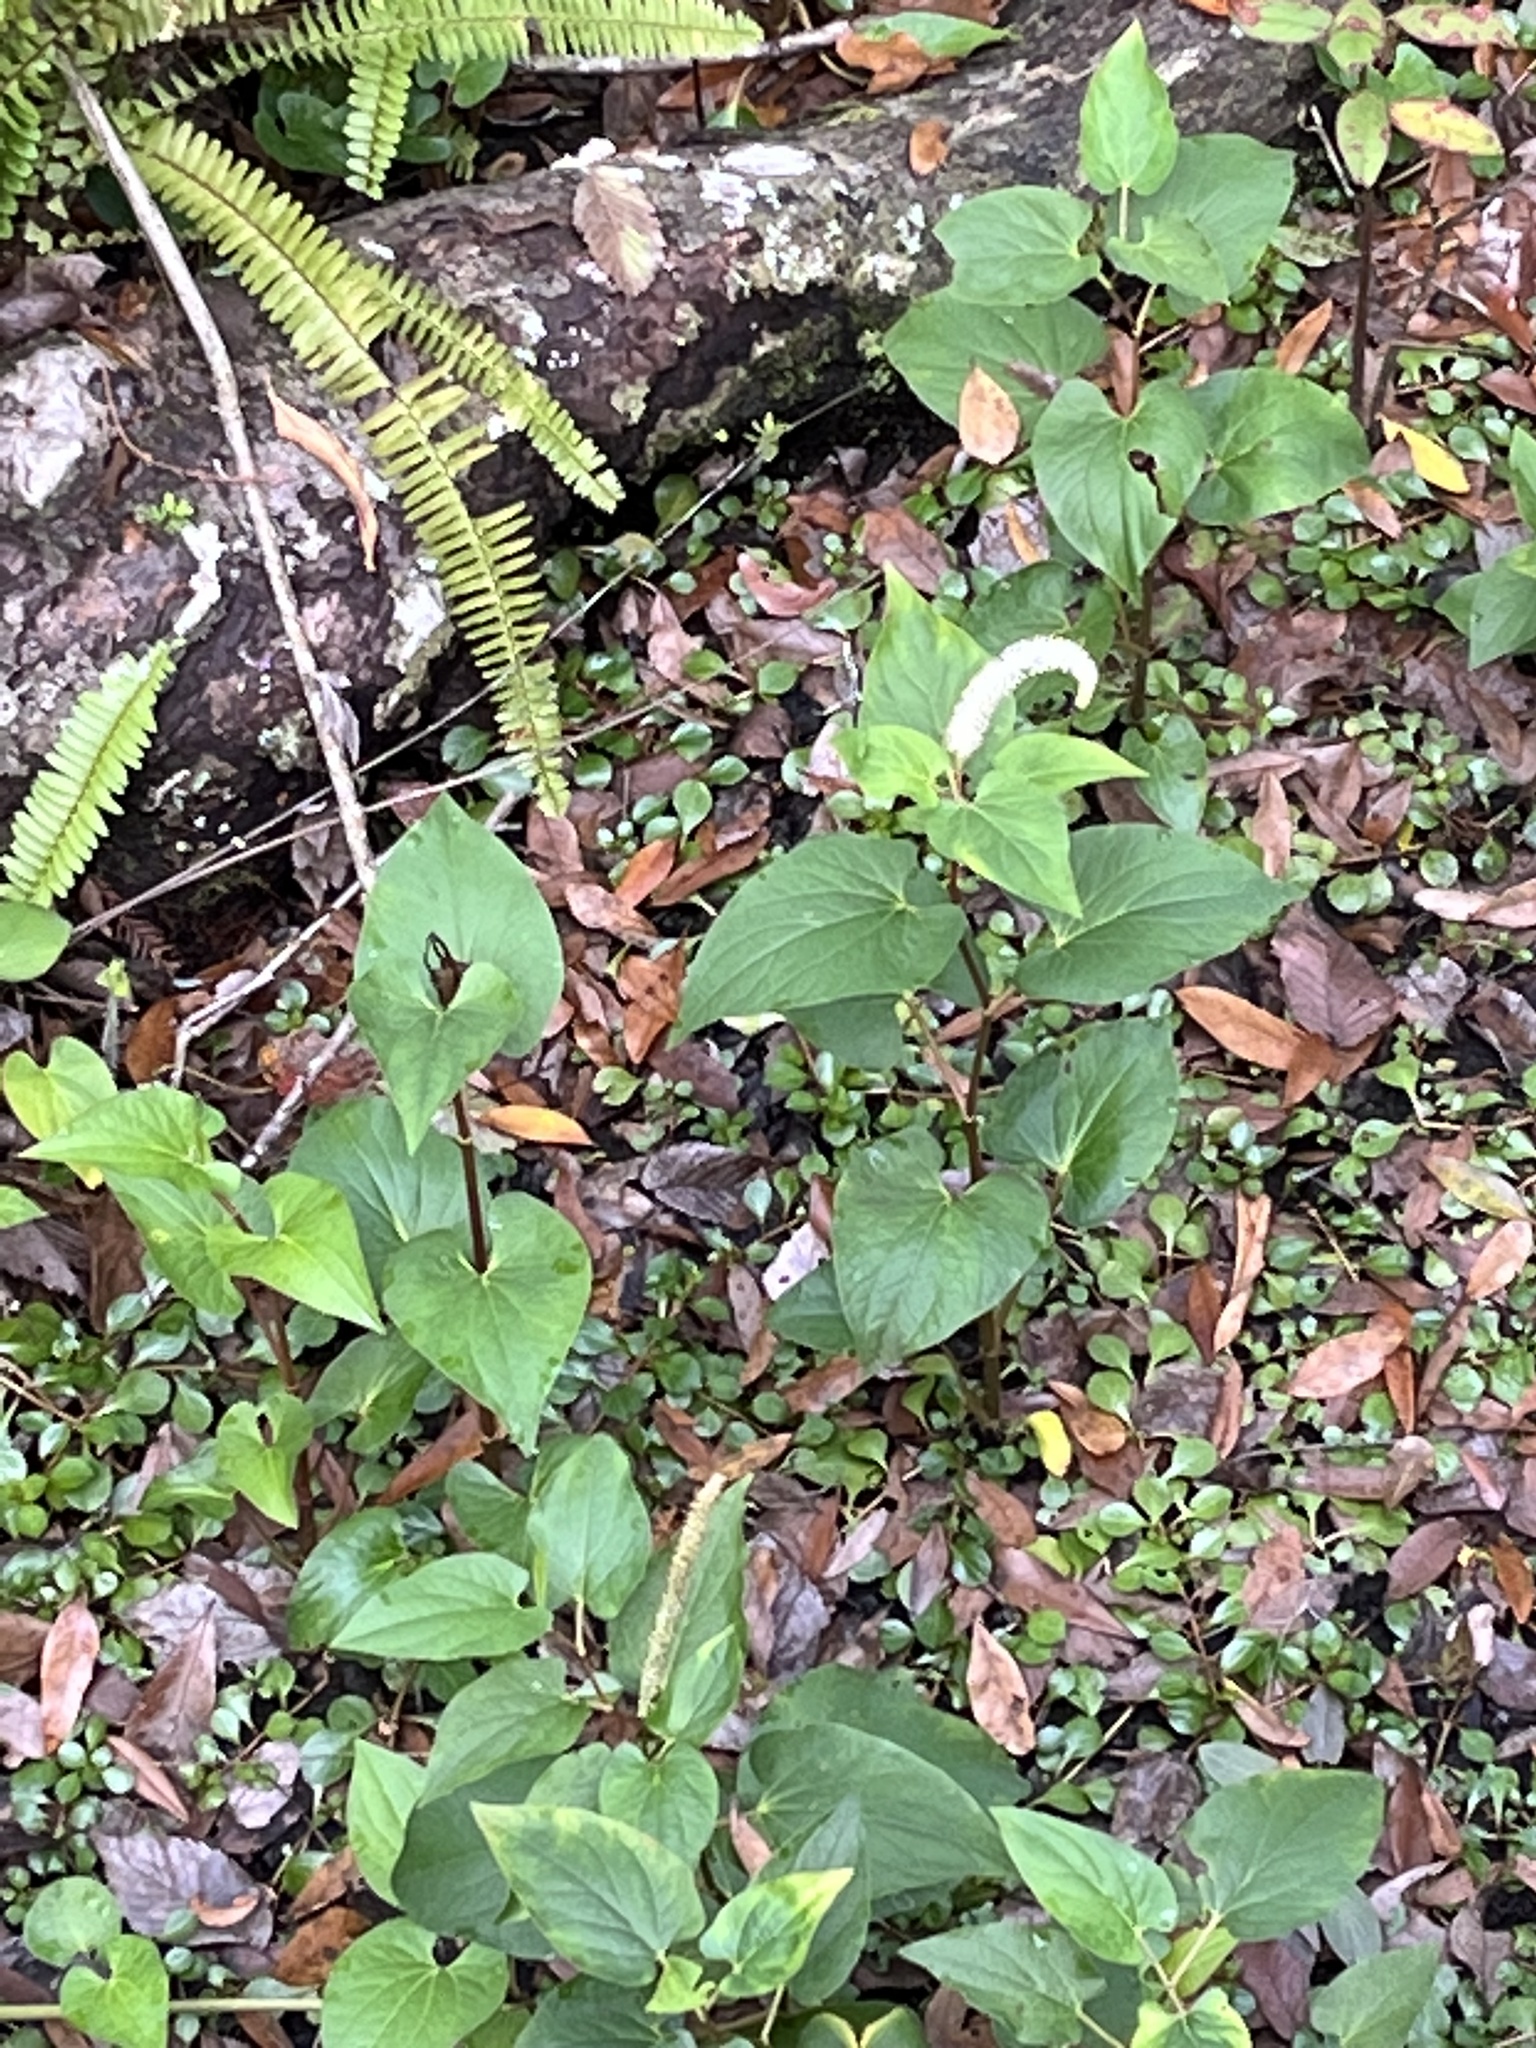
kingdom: Plantae
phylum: Tracheophyta
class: Magnoliopsida
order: Piperales
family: Saururaceae
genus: Saururus
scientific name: Saururus cernuus
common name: Lizard's-tail
